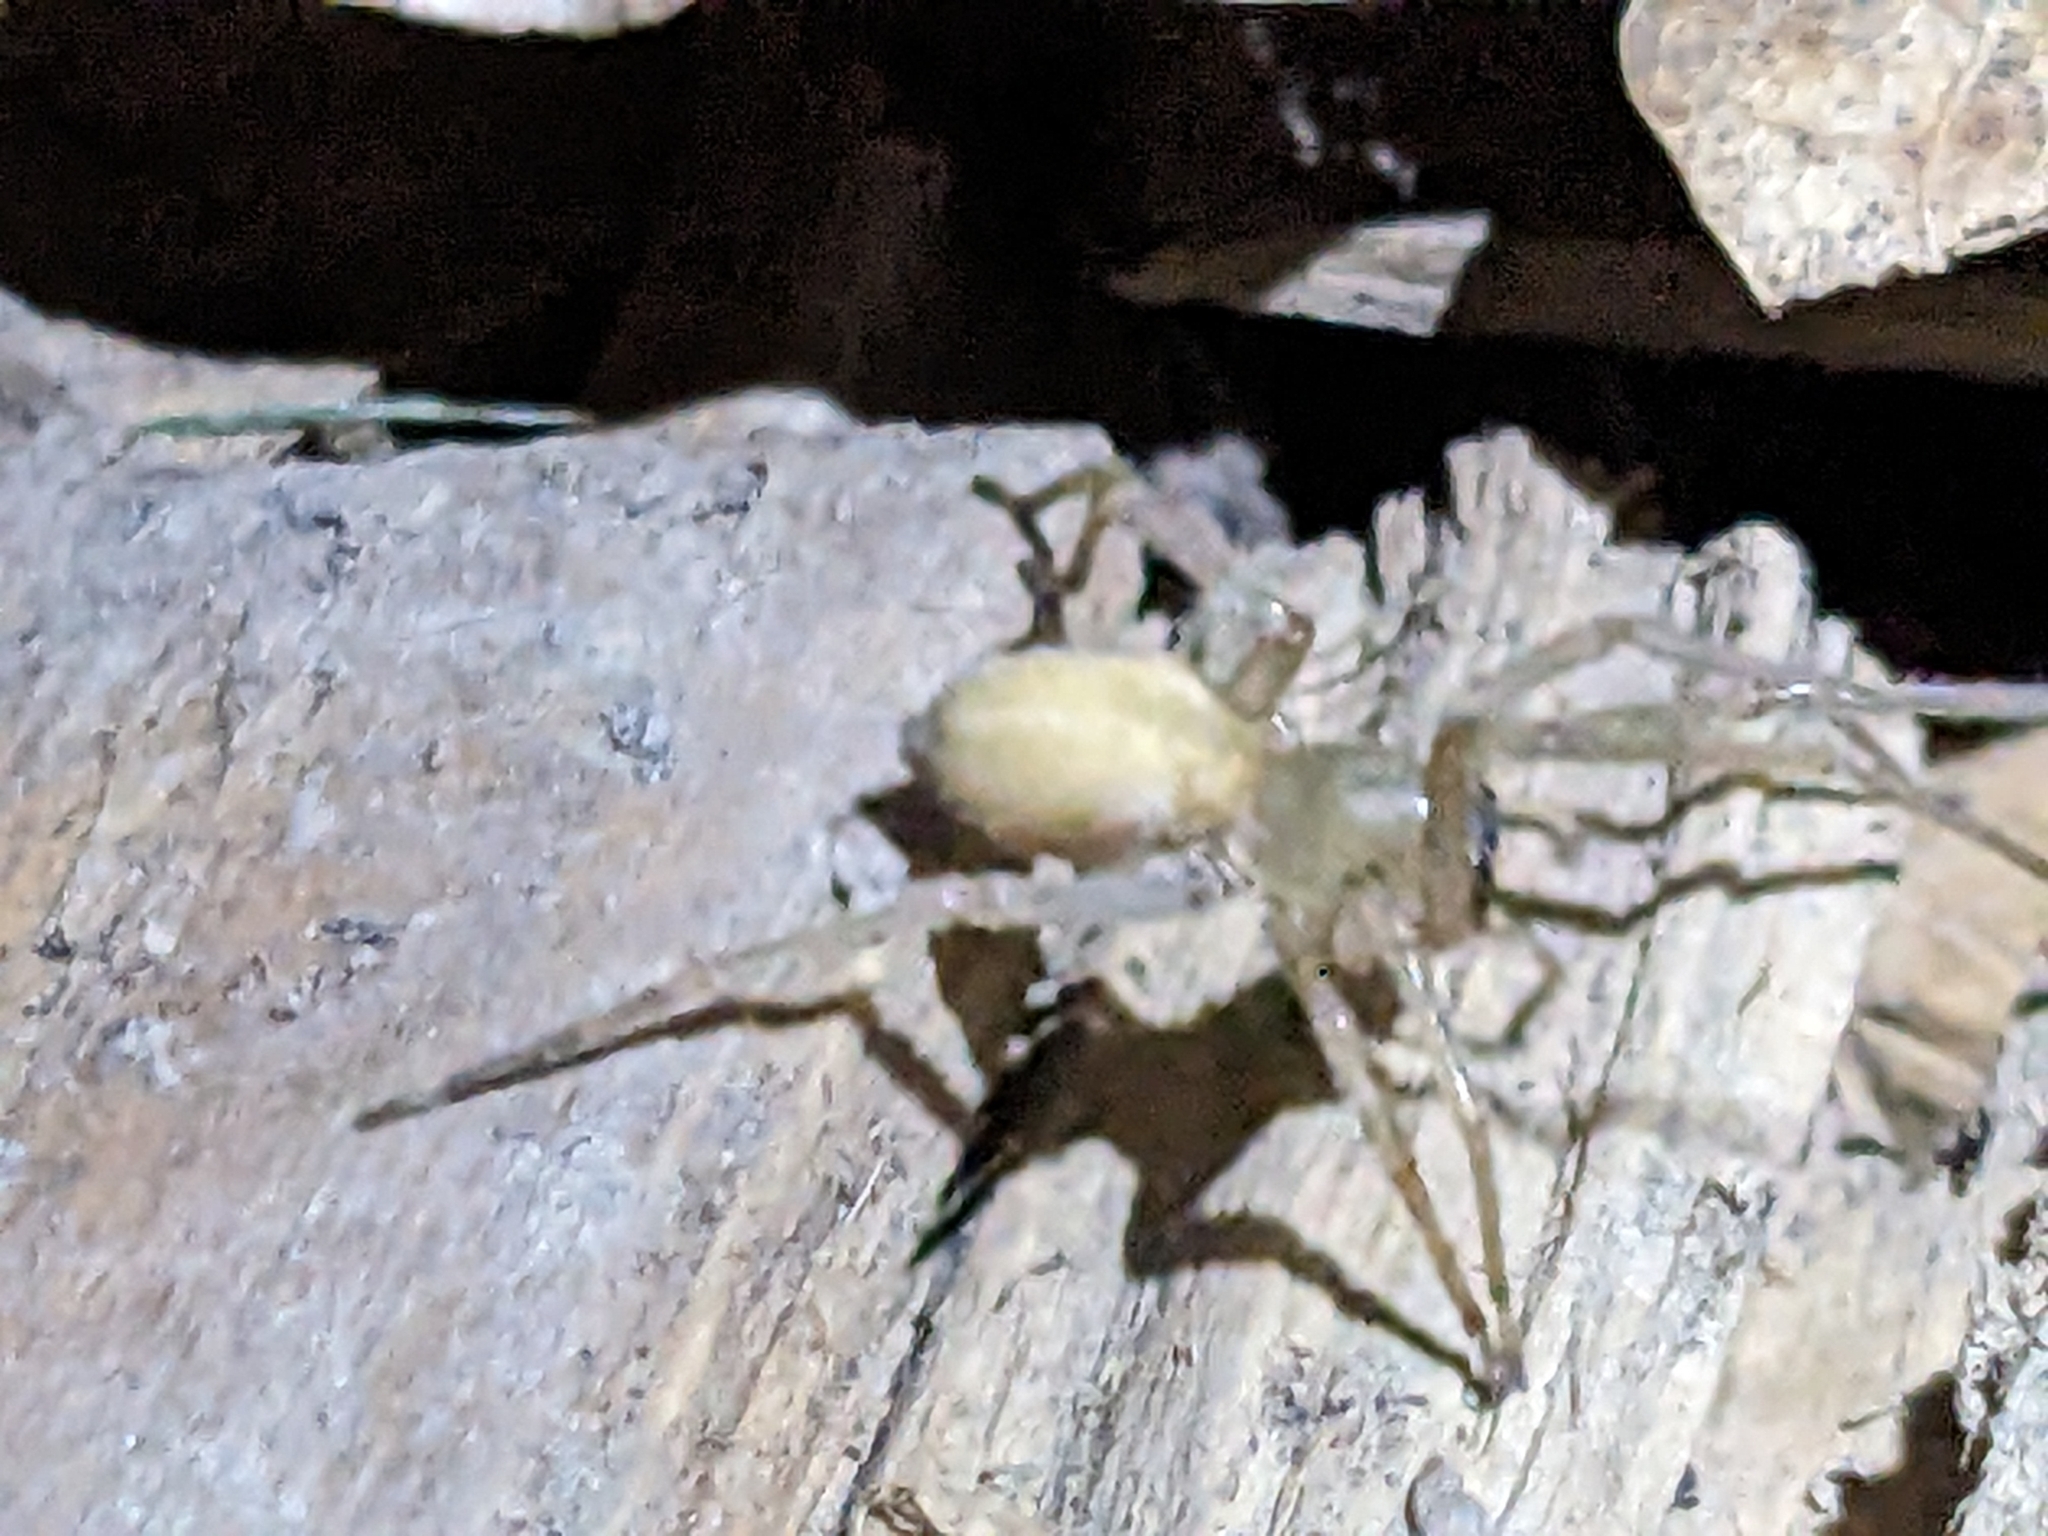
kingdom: Animalia
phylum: Arthropoda
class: Arachnida
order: Araneae
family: Cheiracanthiidae
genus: Cheiracanthium
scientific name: Cheiracanthium mildei
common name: Northern yellow sac spider
